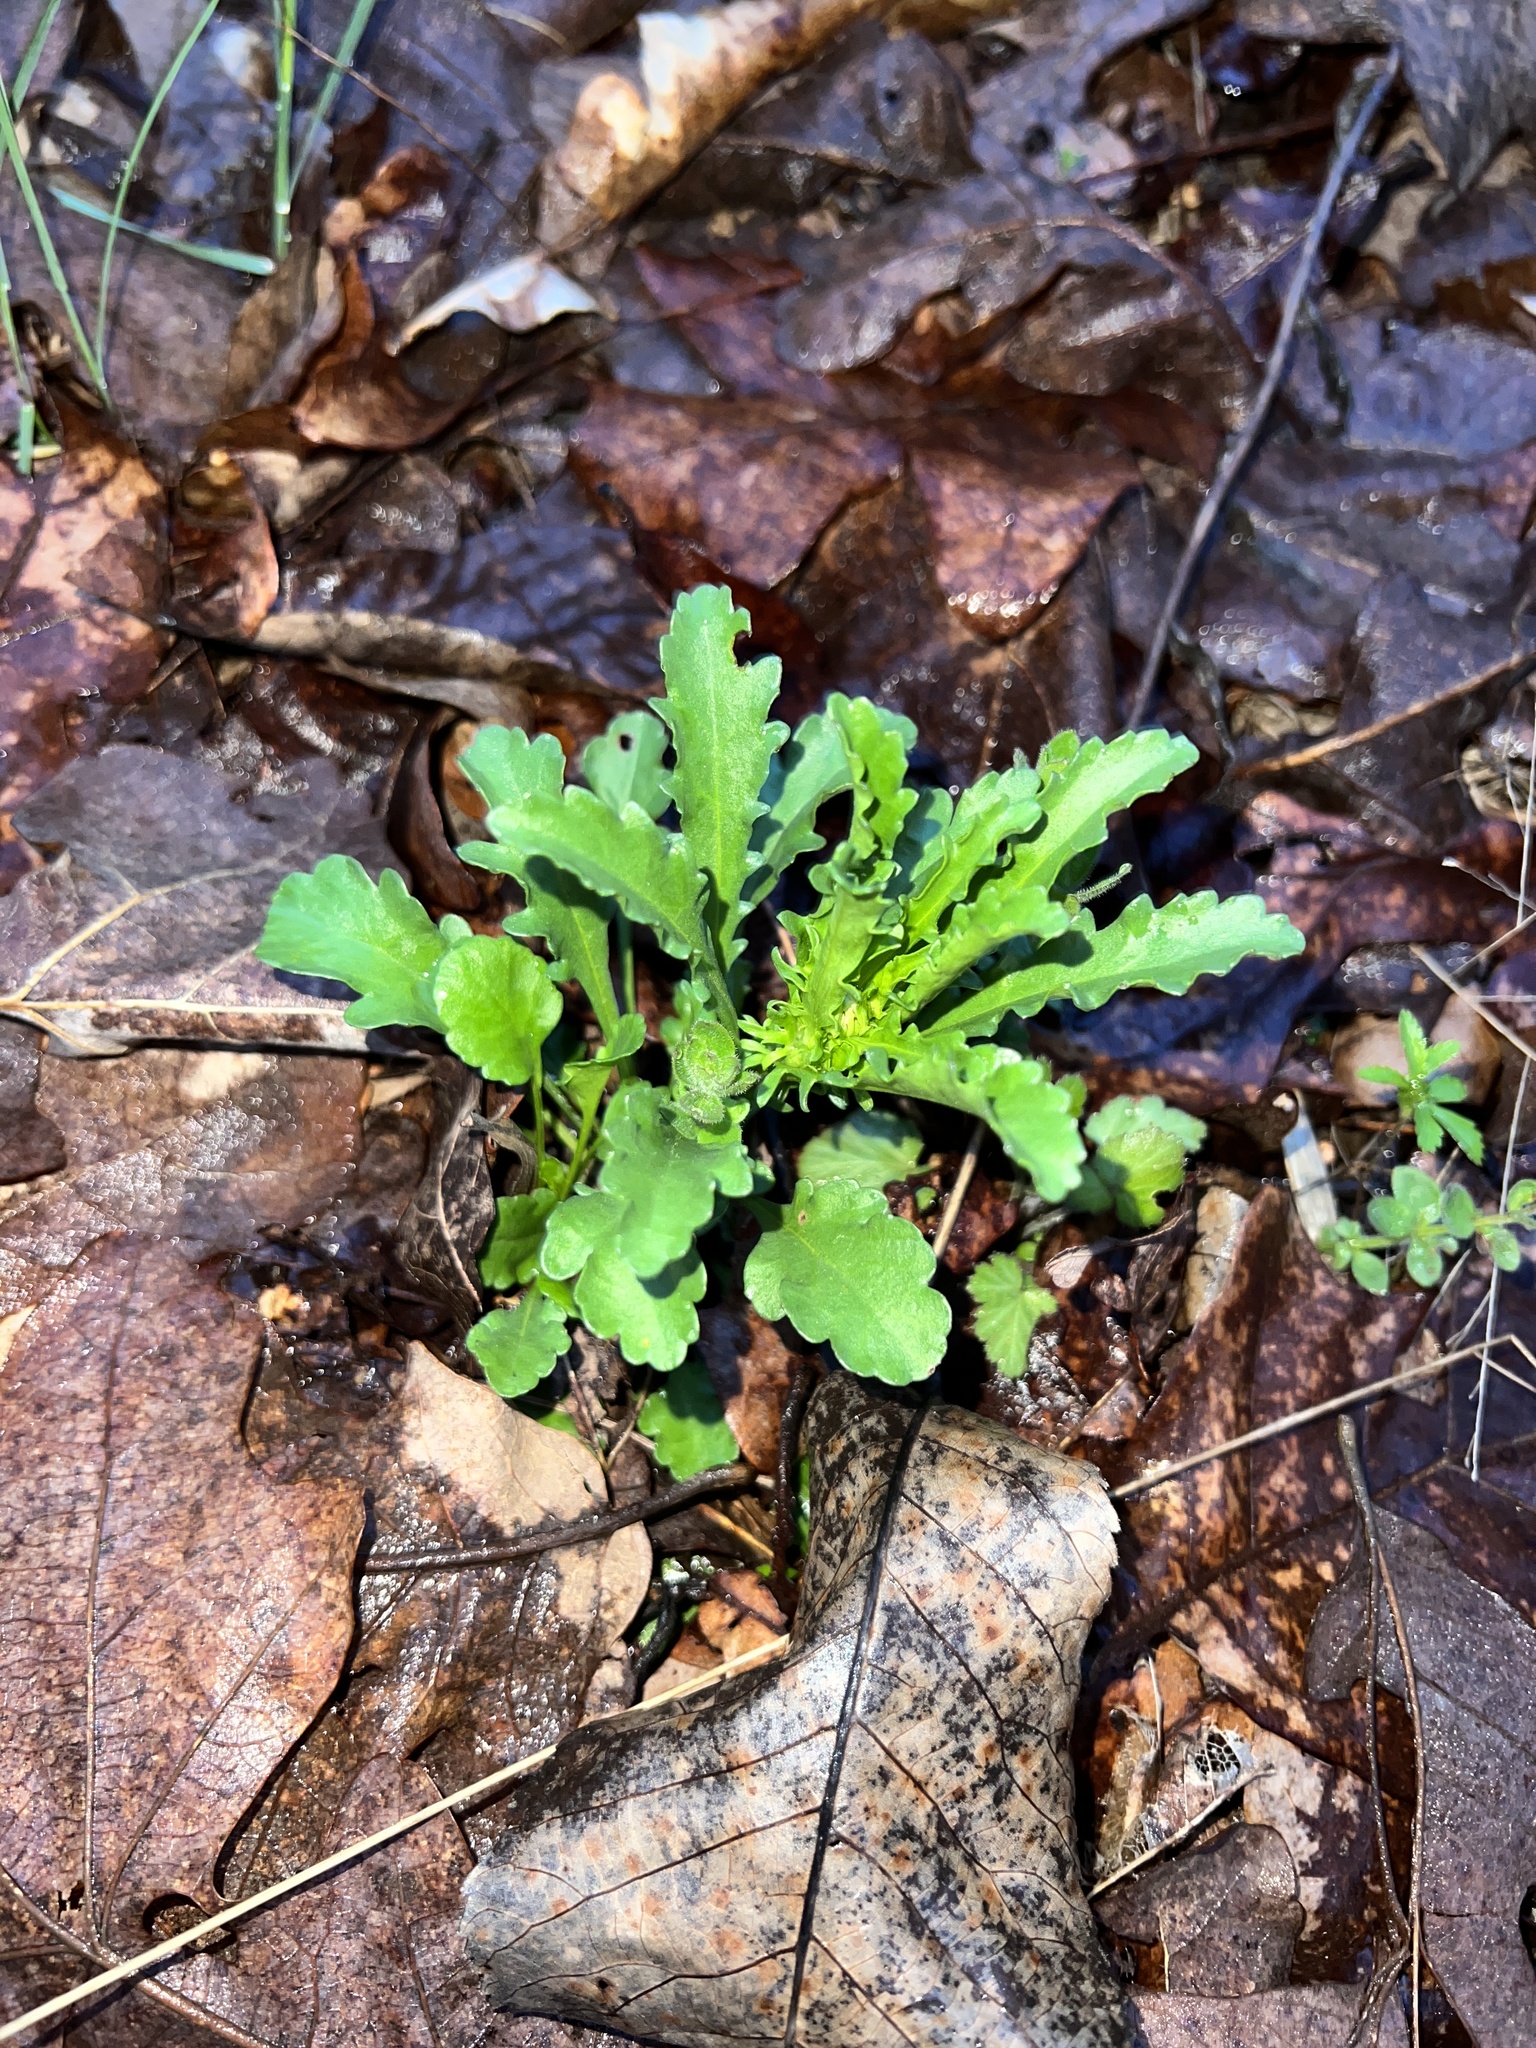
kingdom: Plantae
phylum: Tracheophyta
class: Magnoliopsida
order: Asterales
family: Asteraceae
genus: Leucanthemum
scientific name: Leucanthemum vulgare
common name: Oxeye daisy
